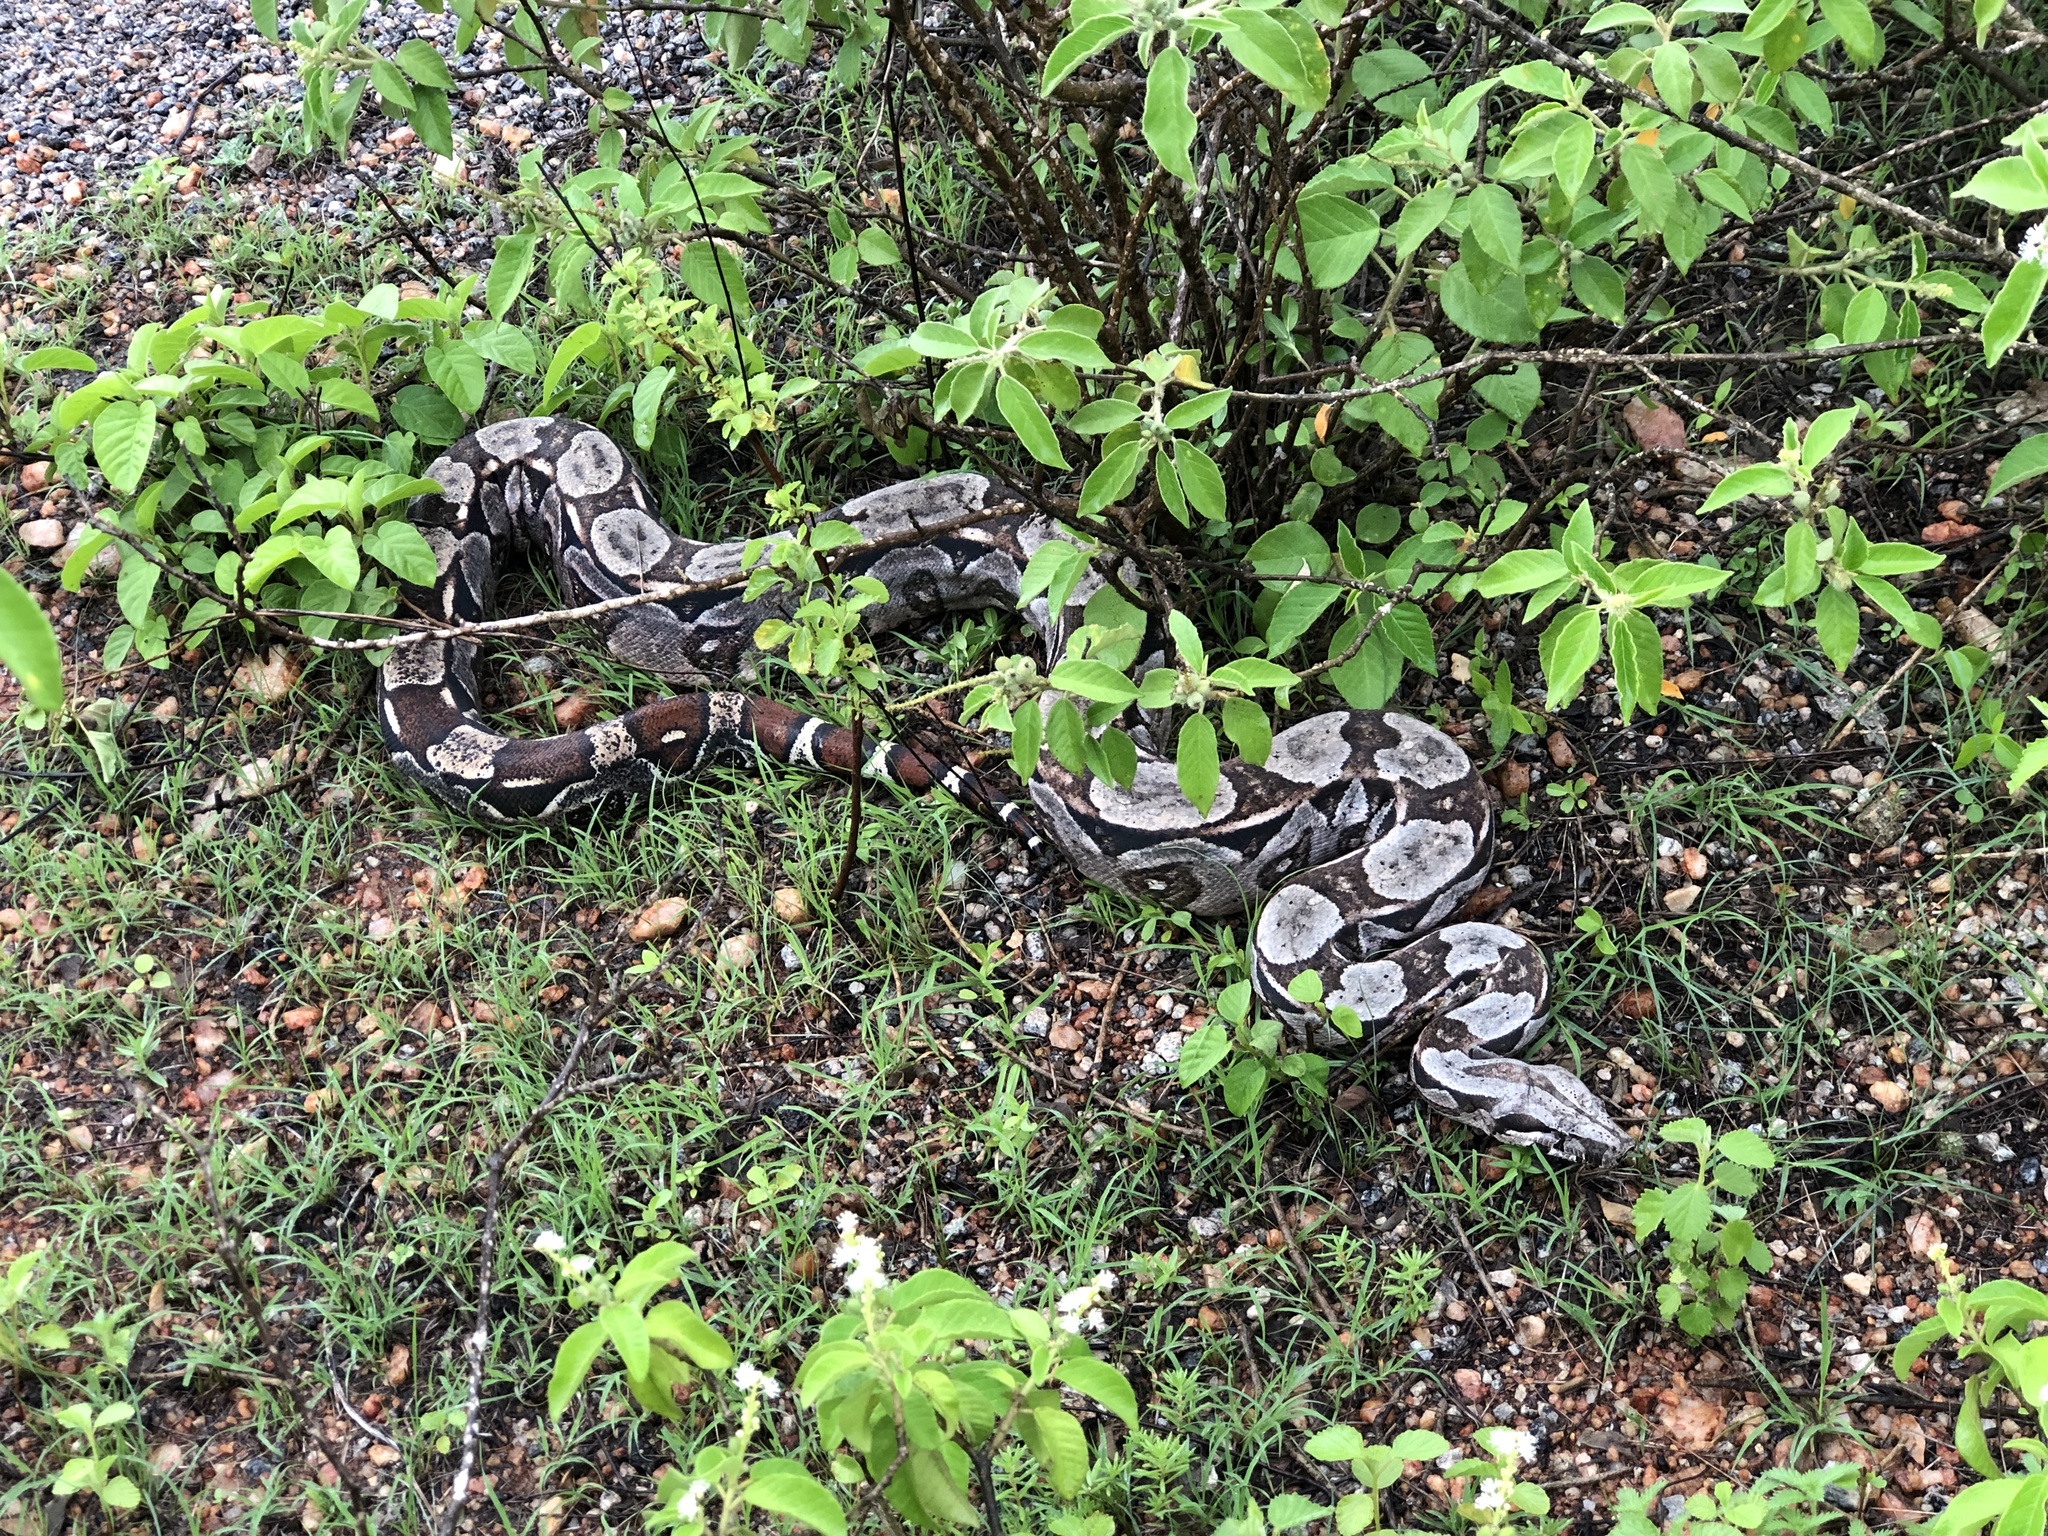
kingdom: Animalia
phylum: Chordata
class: Squamata
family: Boidae
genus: Boa
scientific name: Boa constrictor
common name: Boa constrictor
